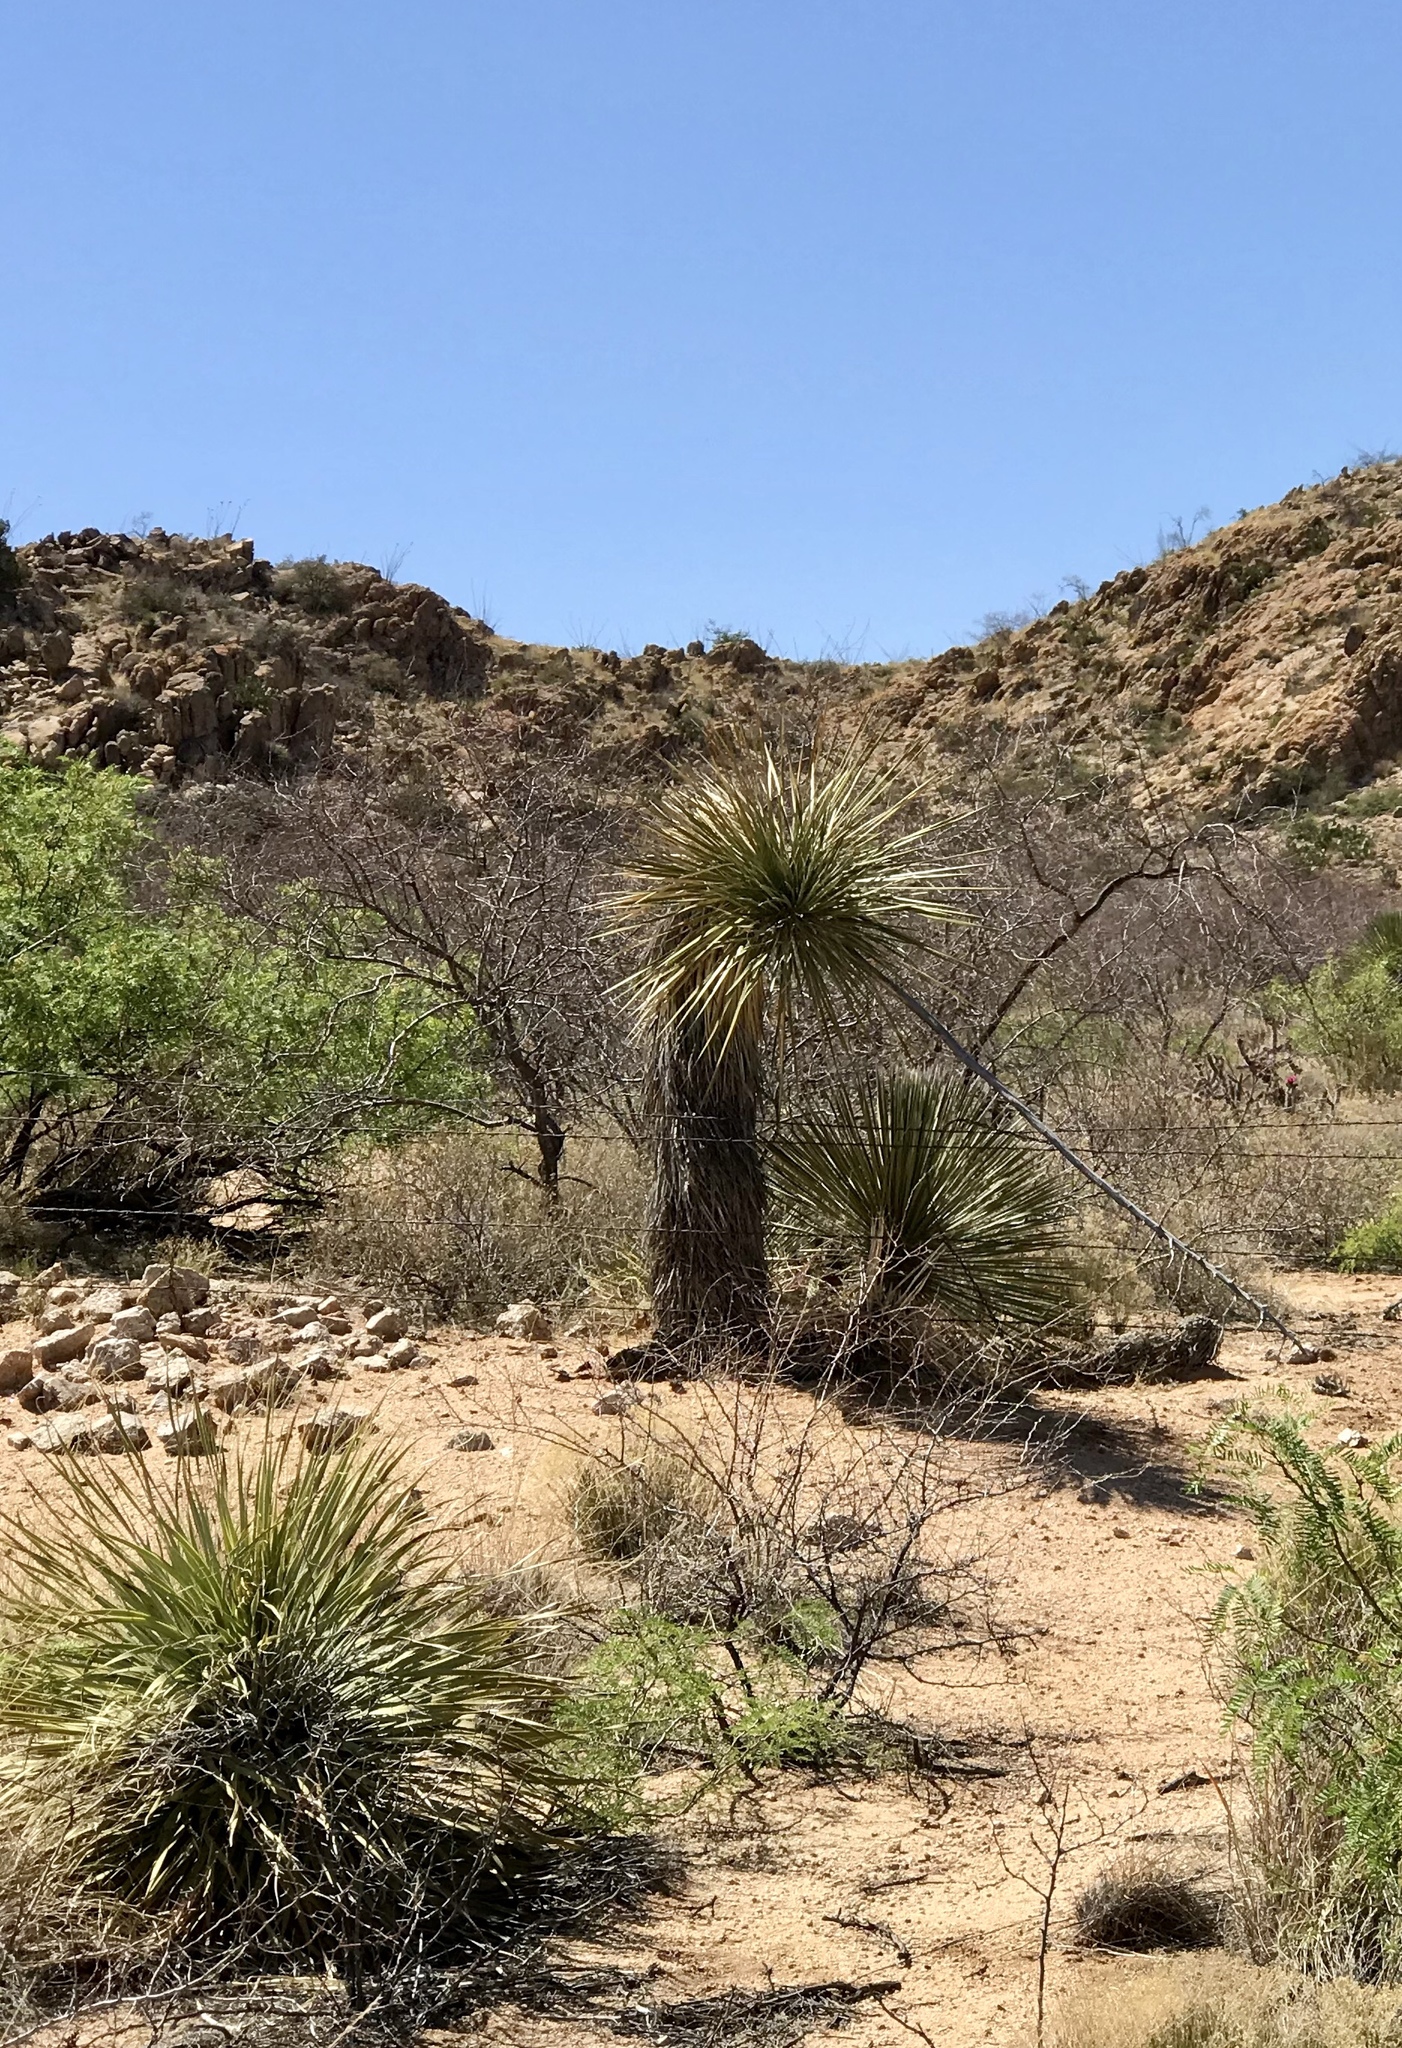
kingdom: Plantae
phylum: Tracheophyta
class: Liliopsida
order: Asparagales
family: Asparagaceae
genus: Yucca
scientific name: Yucca elata
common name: Palmella
